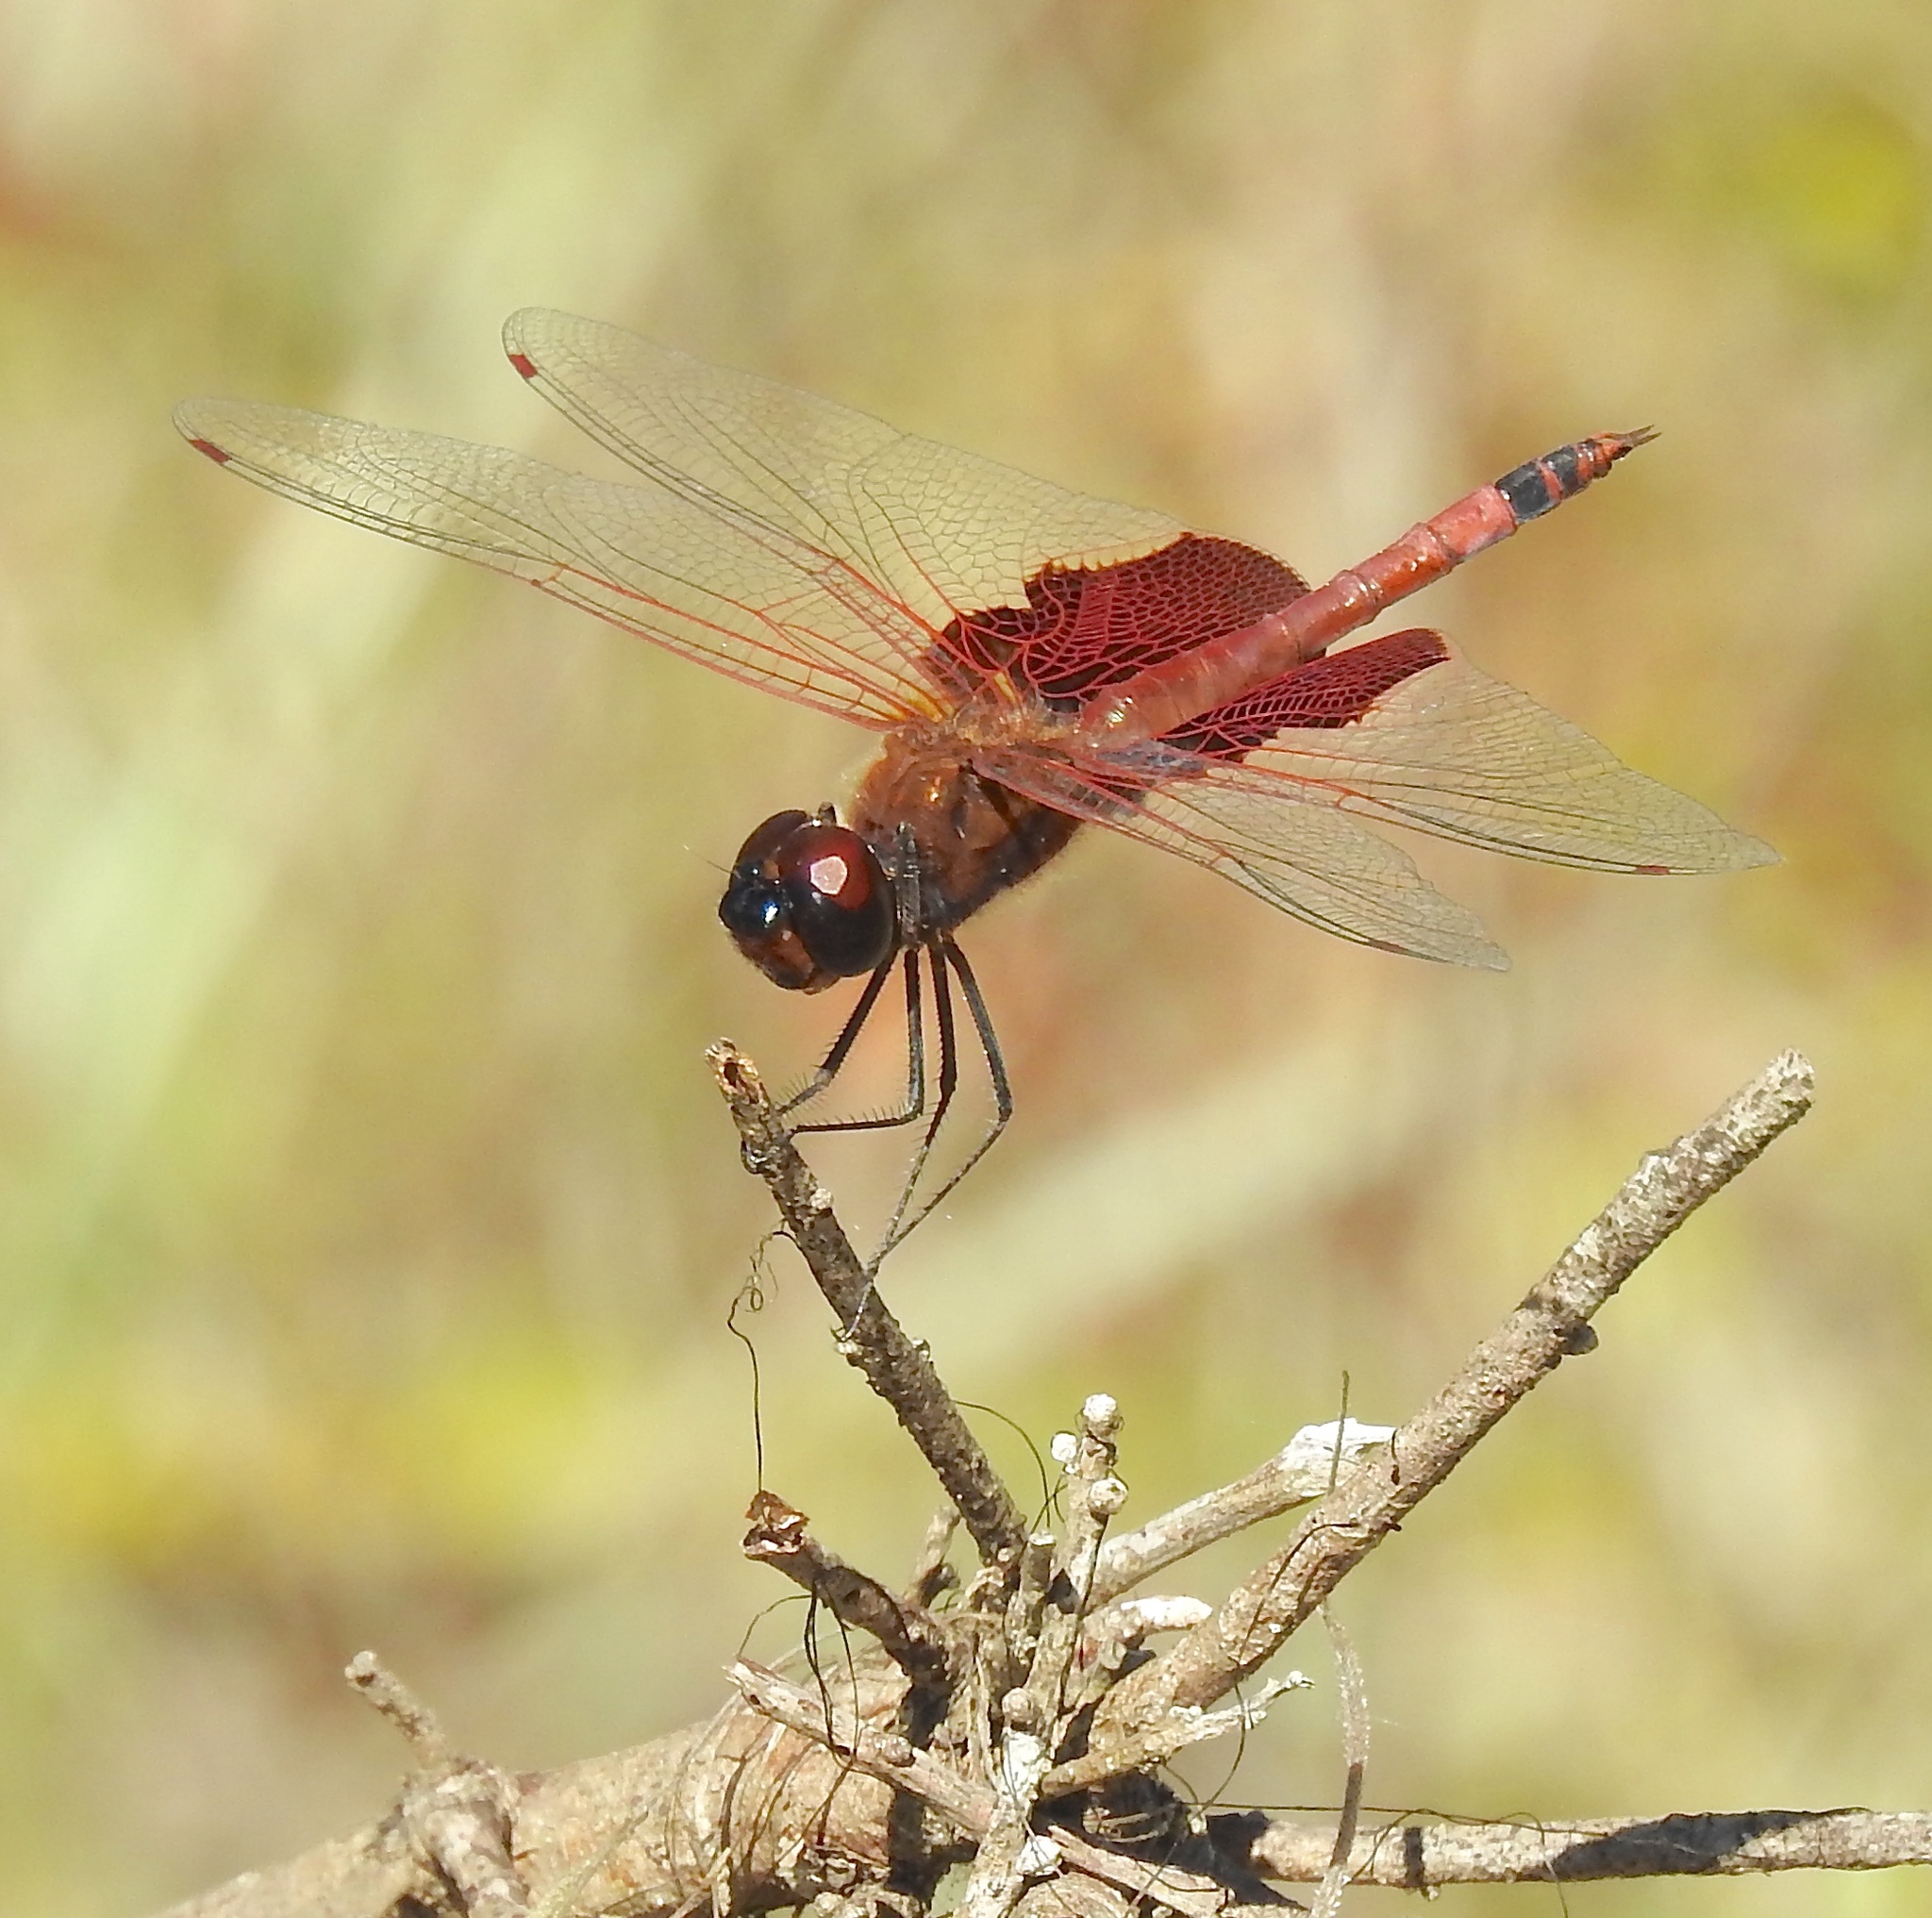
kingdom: Animalia
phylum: Arthropoda
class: Insecta
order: Odonata
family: Libellulidae
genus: Tramea
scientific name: Tramea carolina
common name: Carolina saddlebags
